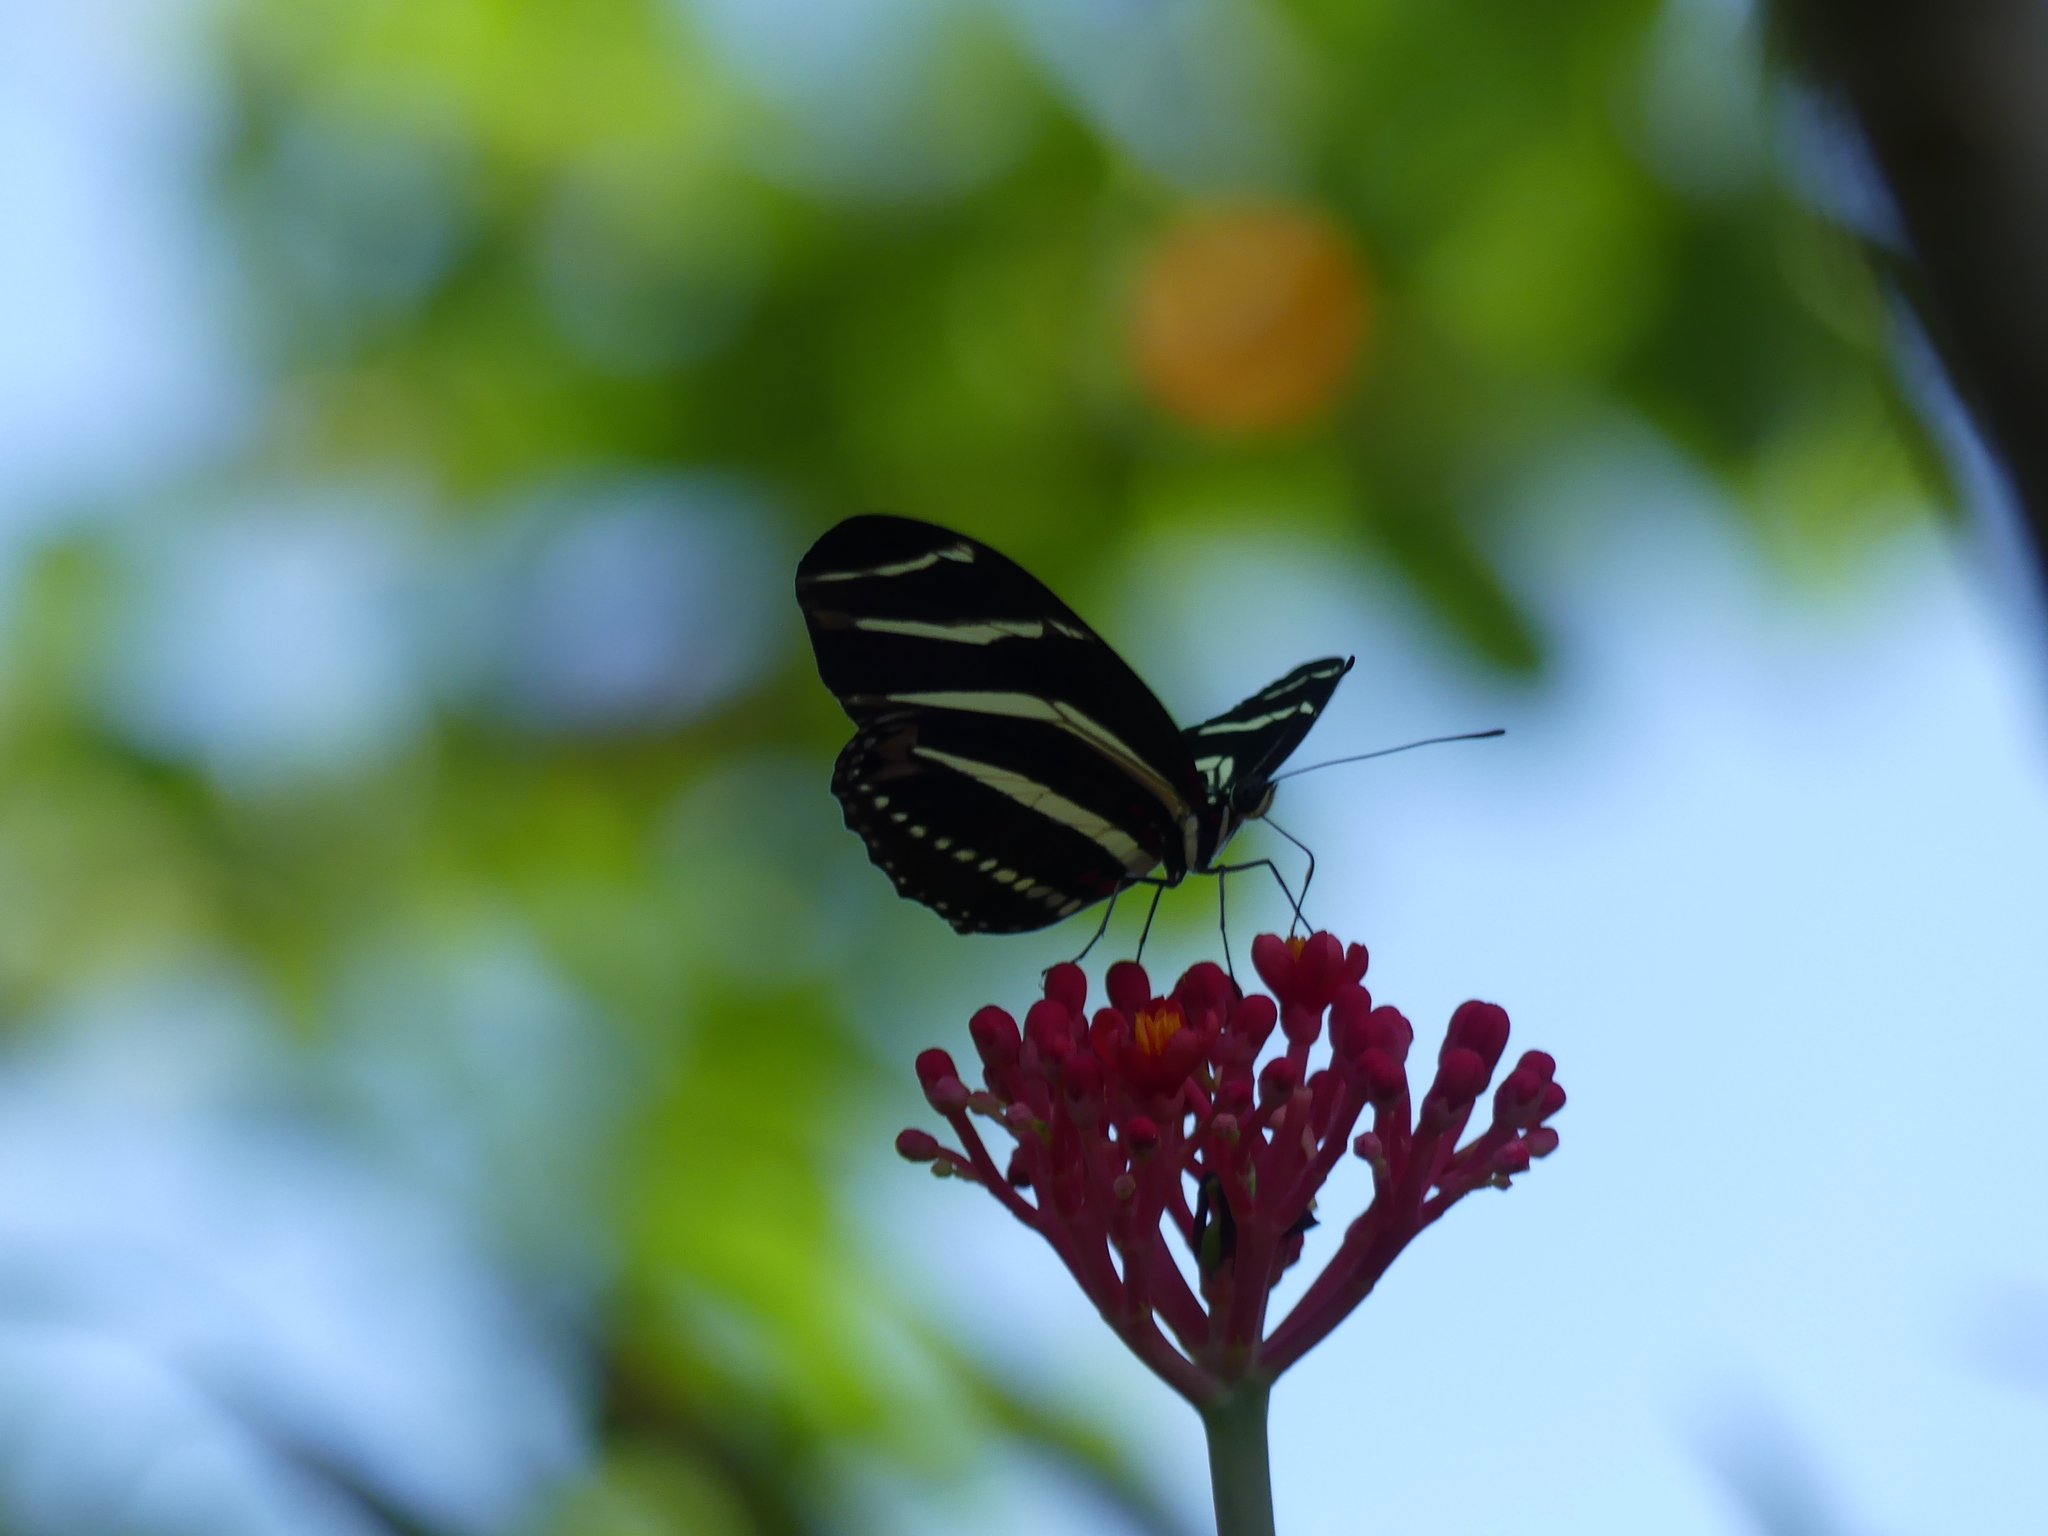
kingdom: Animalia
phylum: Arthropoda
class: Insecta
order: Lepidoptera
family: Nymphalidae
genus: Heliconius
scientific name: Heliconius charithonia
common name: Zebra long wing
